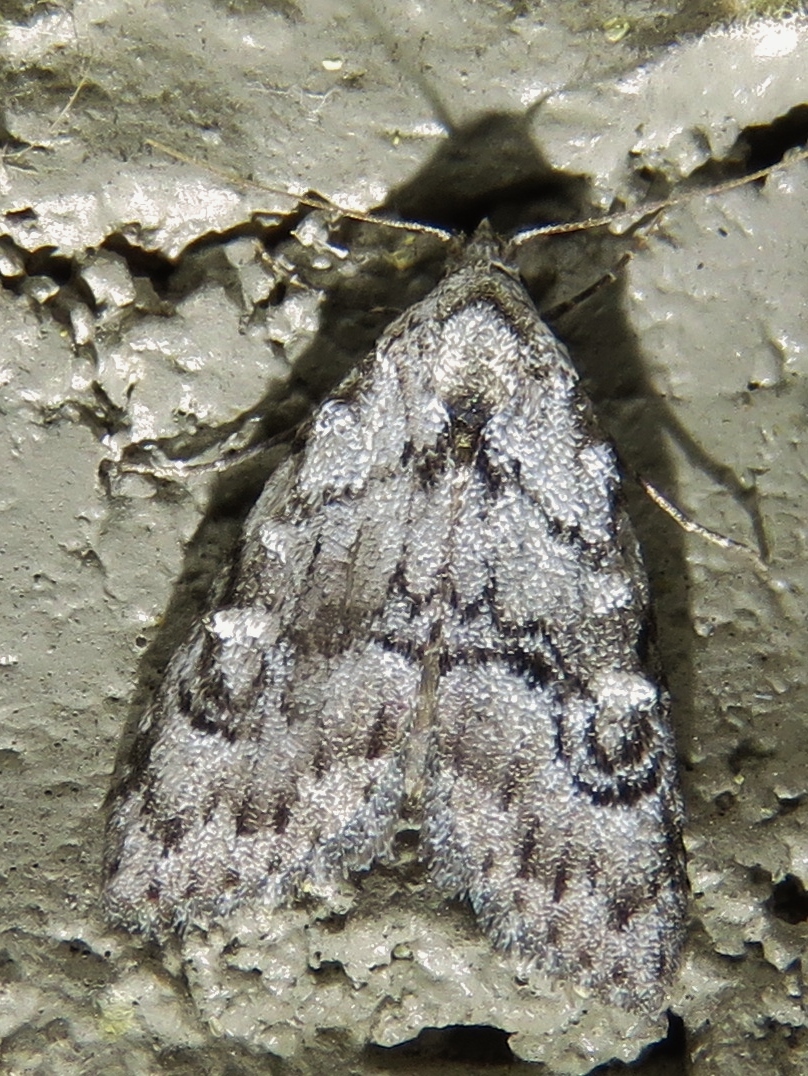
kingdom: Animalia
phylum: Arthropoda
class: Insecta
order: Lepidoptera
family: Nolidae
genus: Meganola
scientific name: Meganola minuscula
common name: Confused meganola moth
